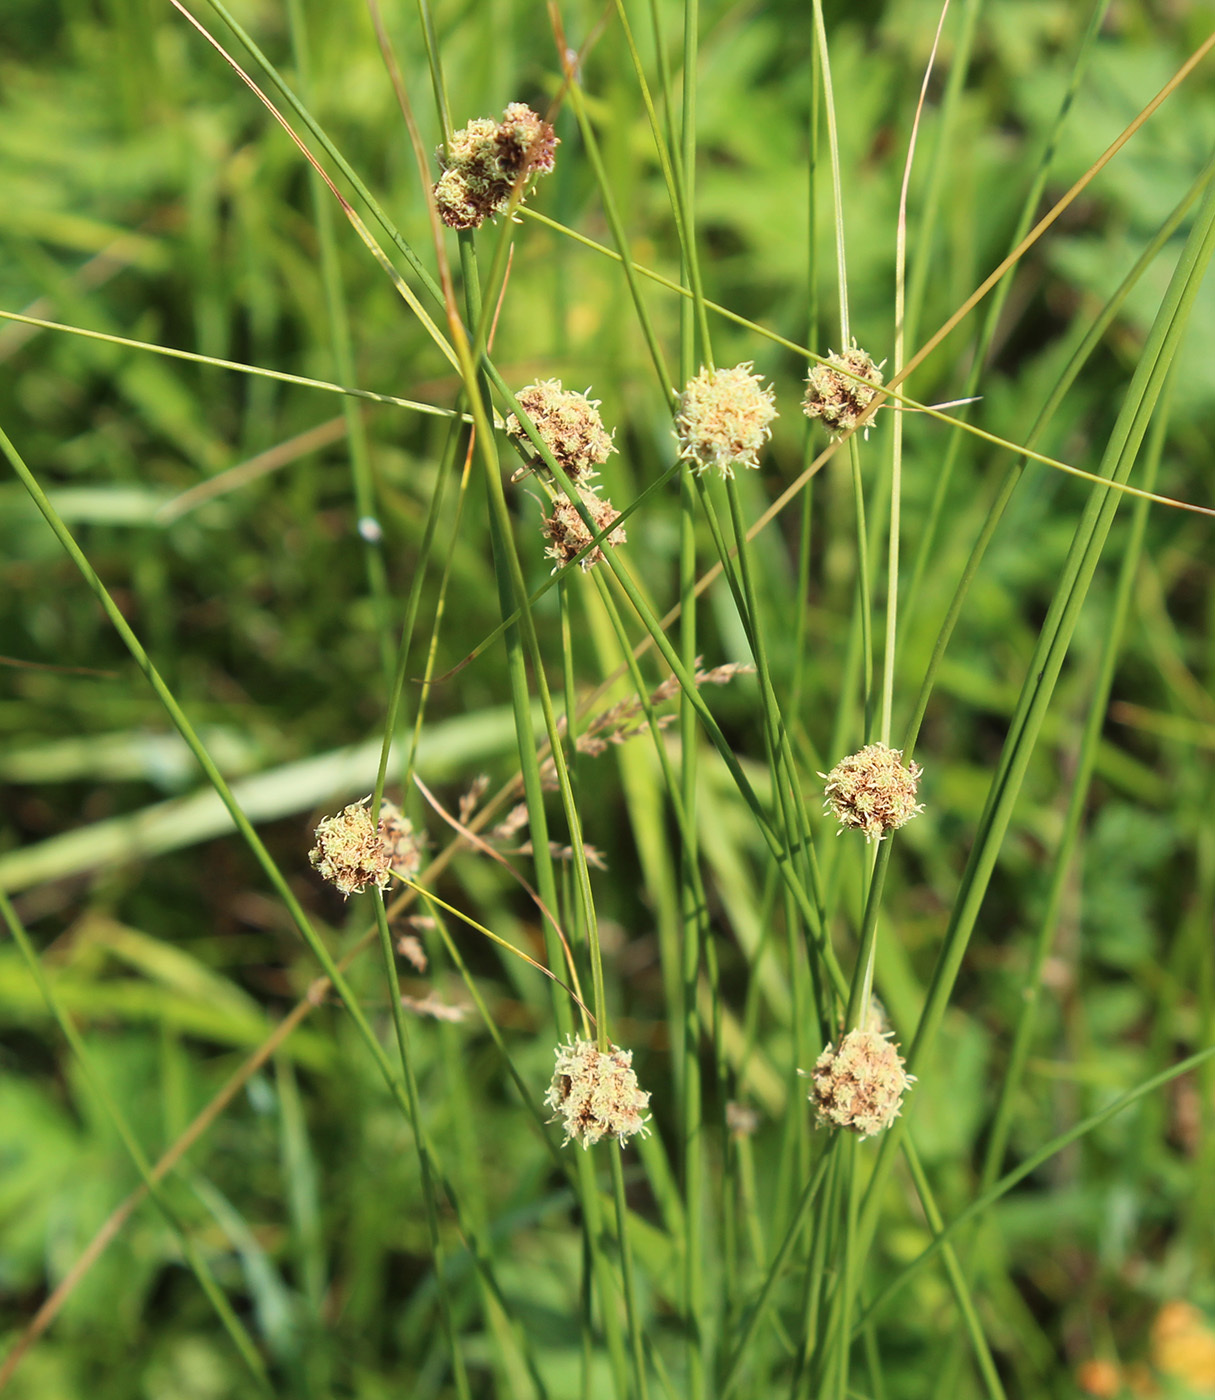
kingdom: Plantae
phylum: Tracheophyta
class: Liliopsida
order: Poales
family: Cyperaceae
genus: Scirpoides
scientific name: Scirpoides holoschoenus
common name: Round-headed club-rush
